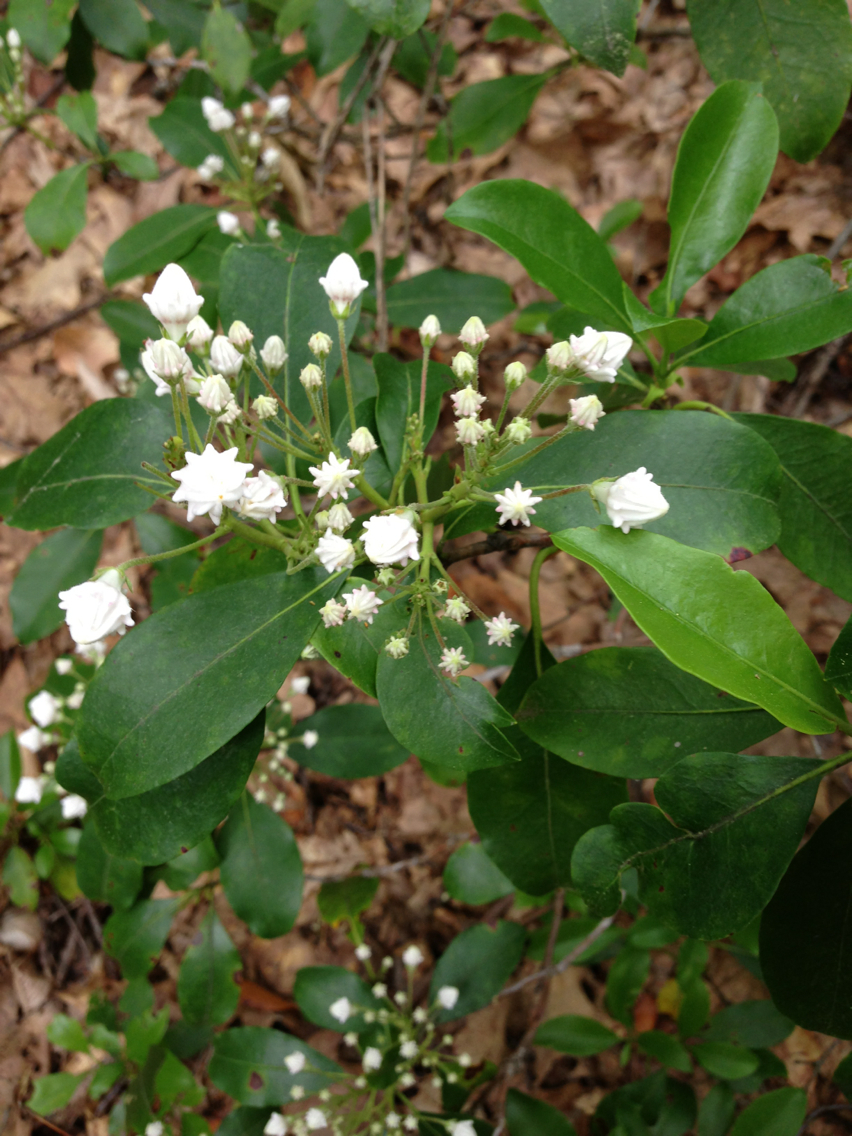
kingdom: Plantae
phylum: Tracheophyta
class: Magnoliopsida
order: Ericales
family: Ericaceae
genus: Kalmia
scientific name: Kalmia latifolia
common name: Mountain-laurel
